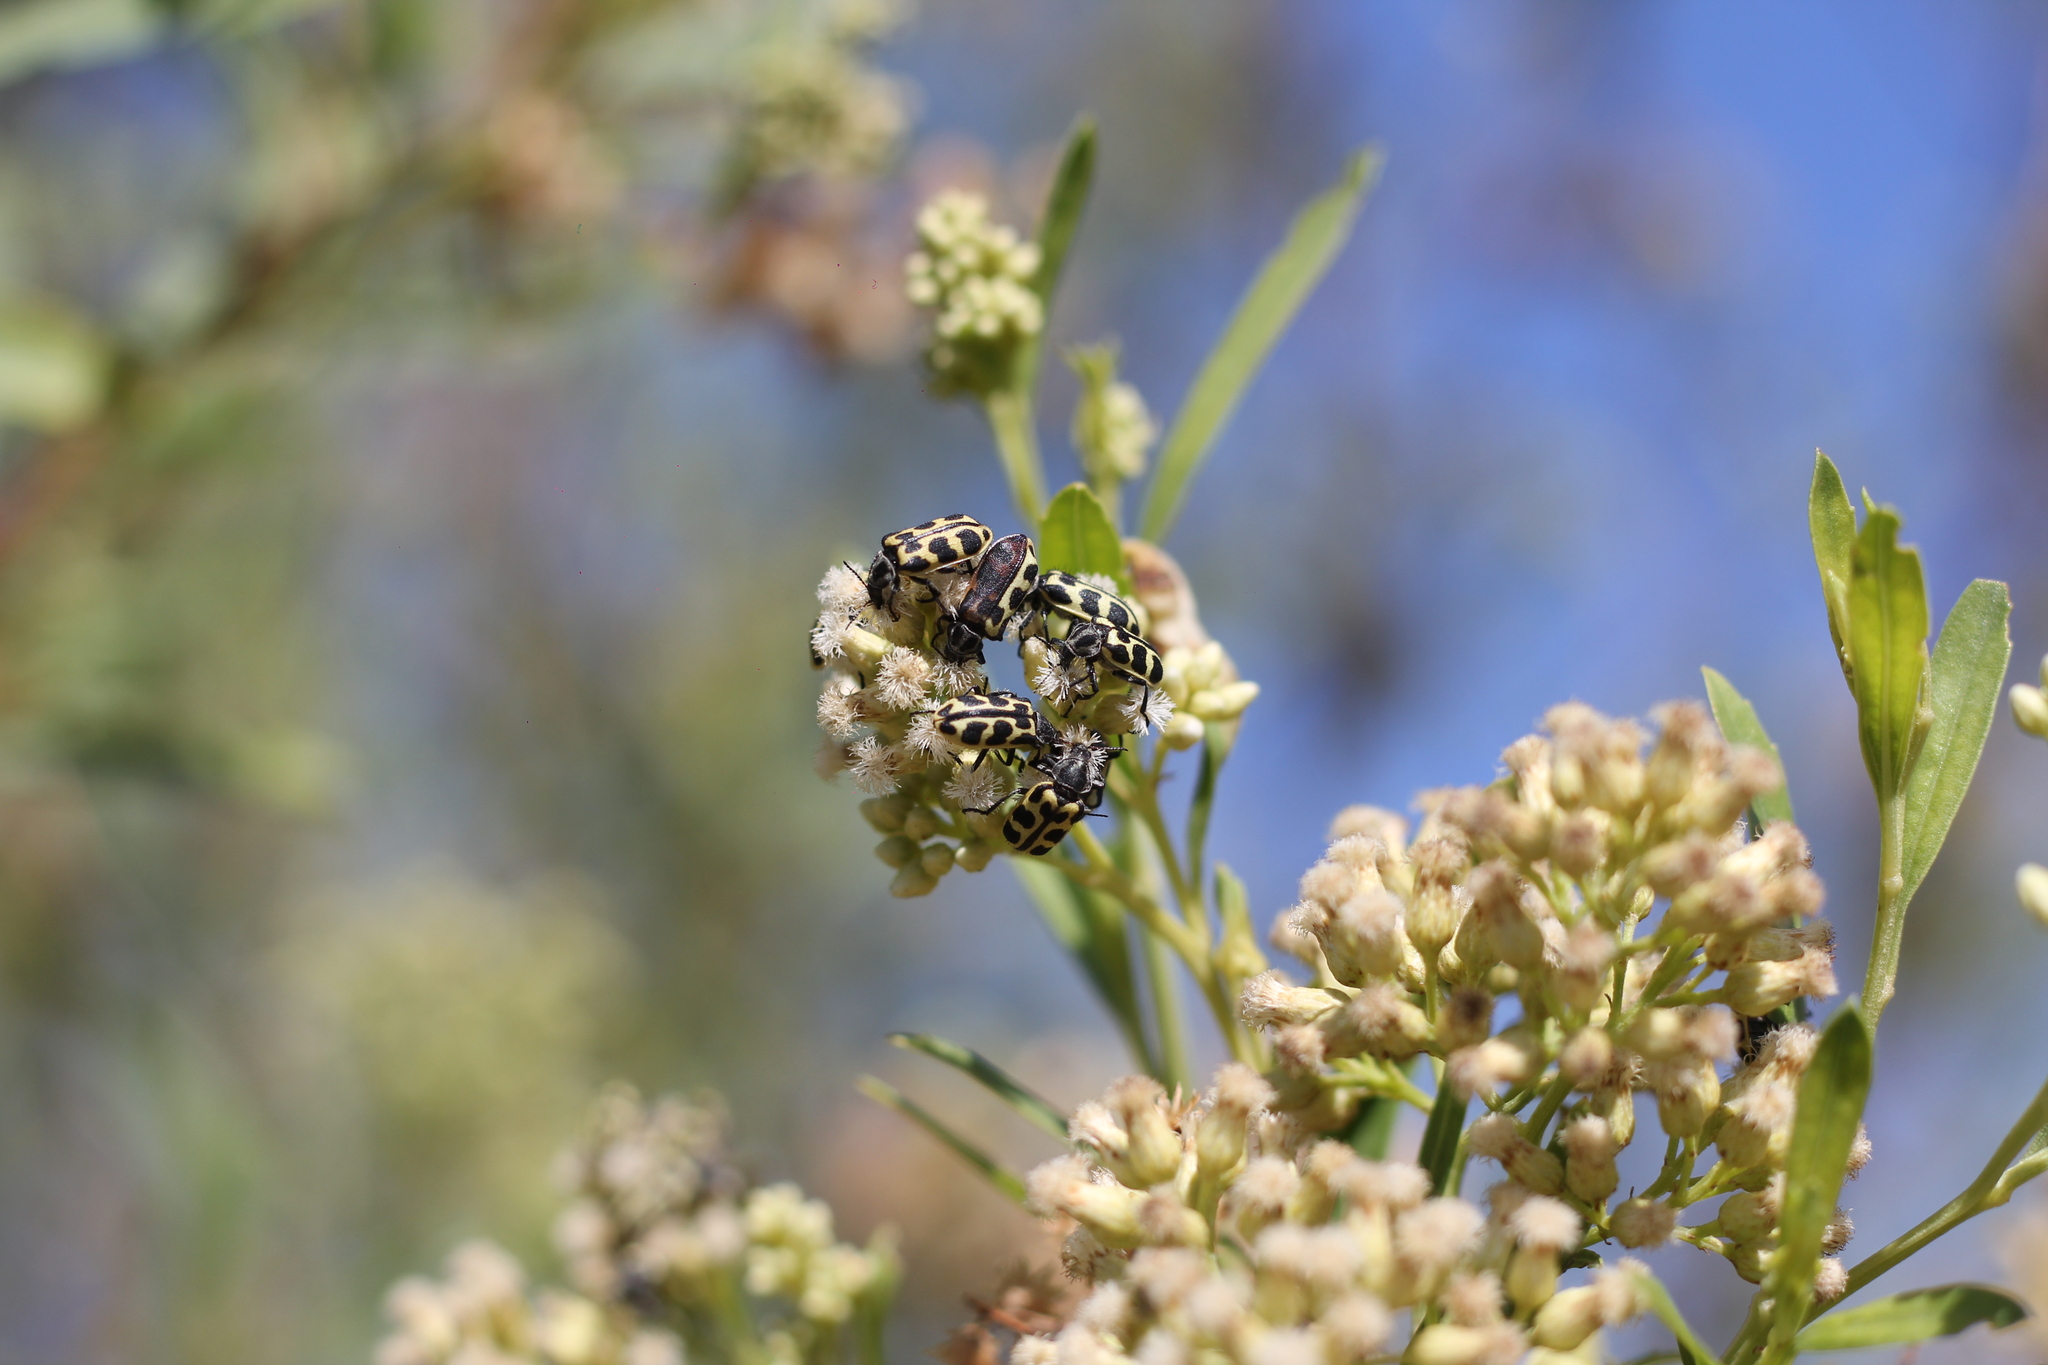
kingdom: Animalia
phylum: Arthropoda
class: Insecta
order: Coleoptera
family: Melyridae
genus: Astylus
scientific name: Astylus atromaculatus
